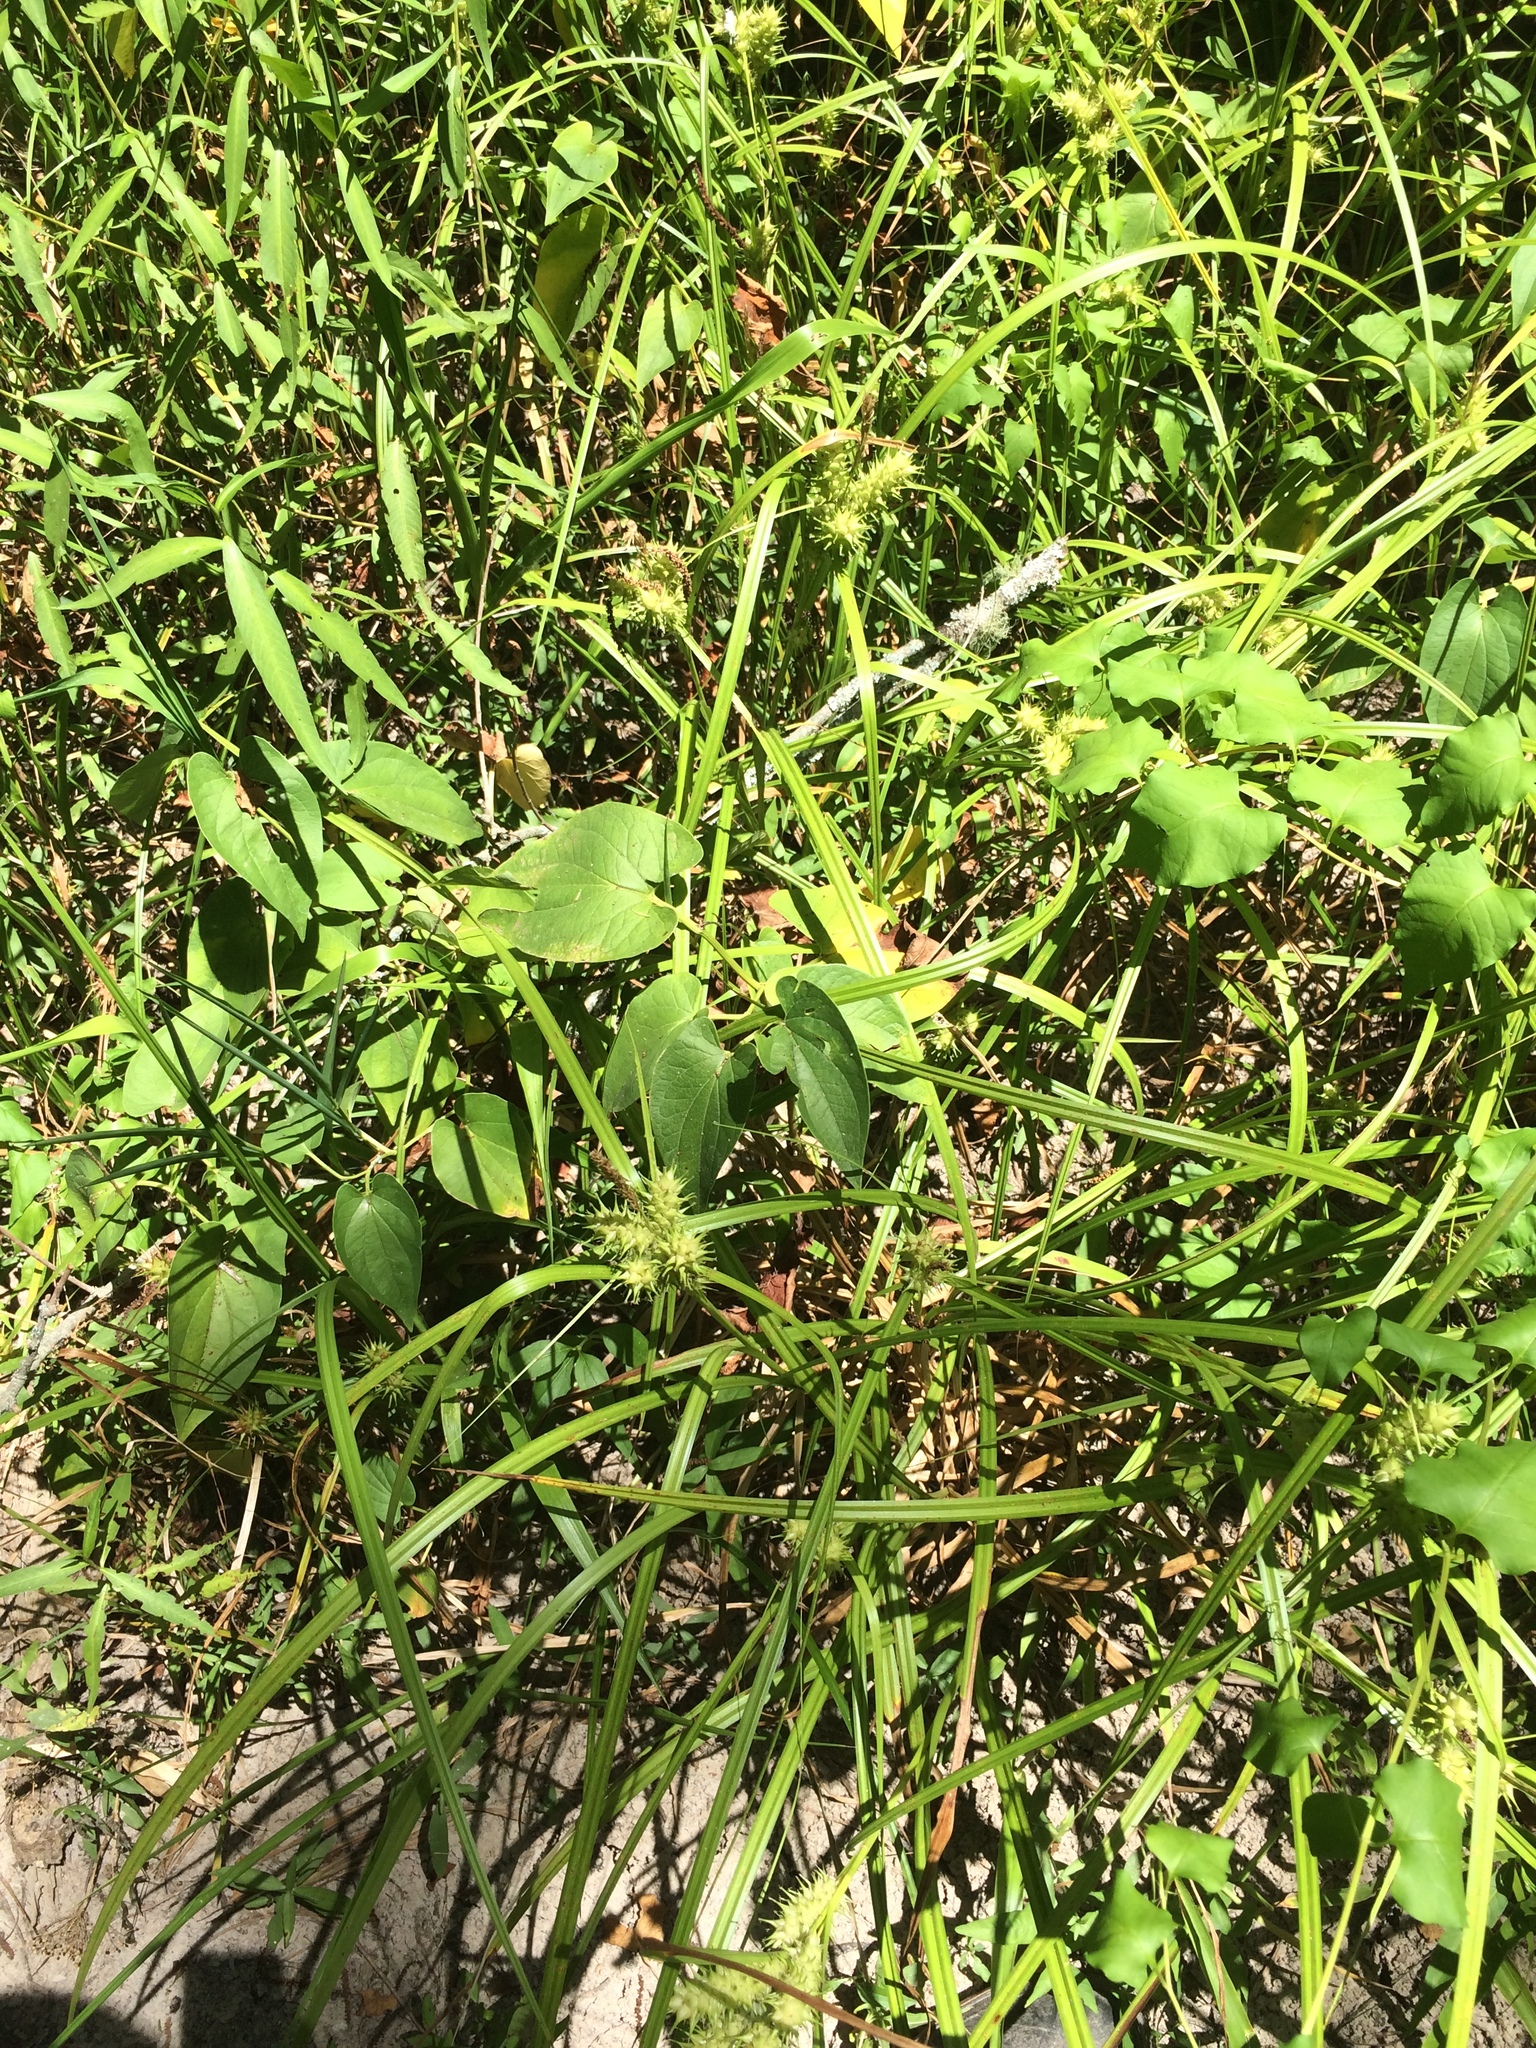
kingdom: Plantae
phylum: Tracheophyta
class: Liliopsida
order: Poales
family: Cyperaceae
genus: Carex
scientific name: Carex lupuliformis
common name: False hop sedge
